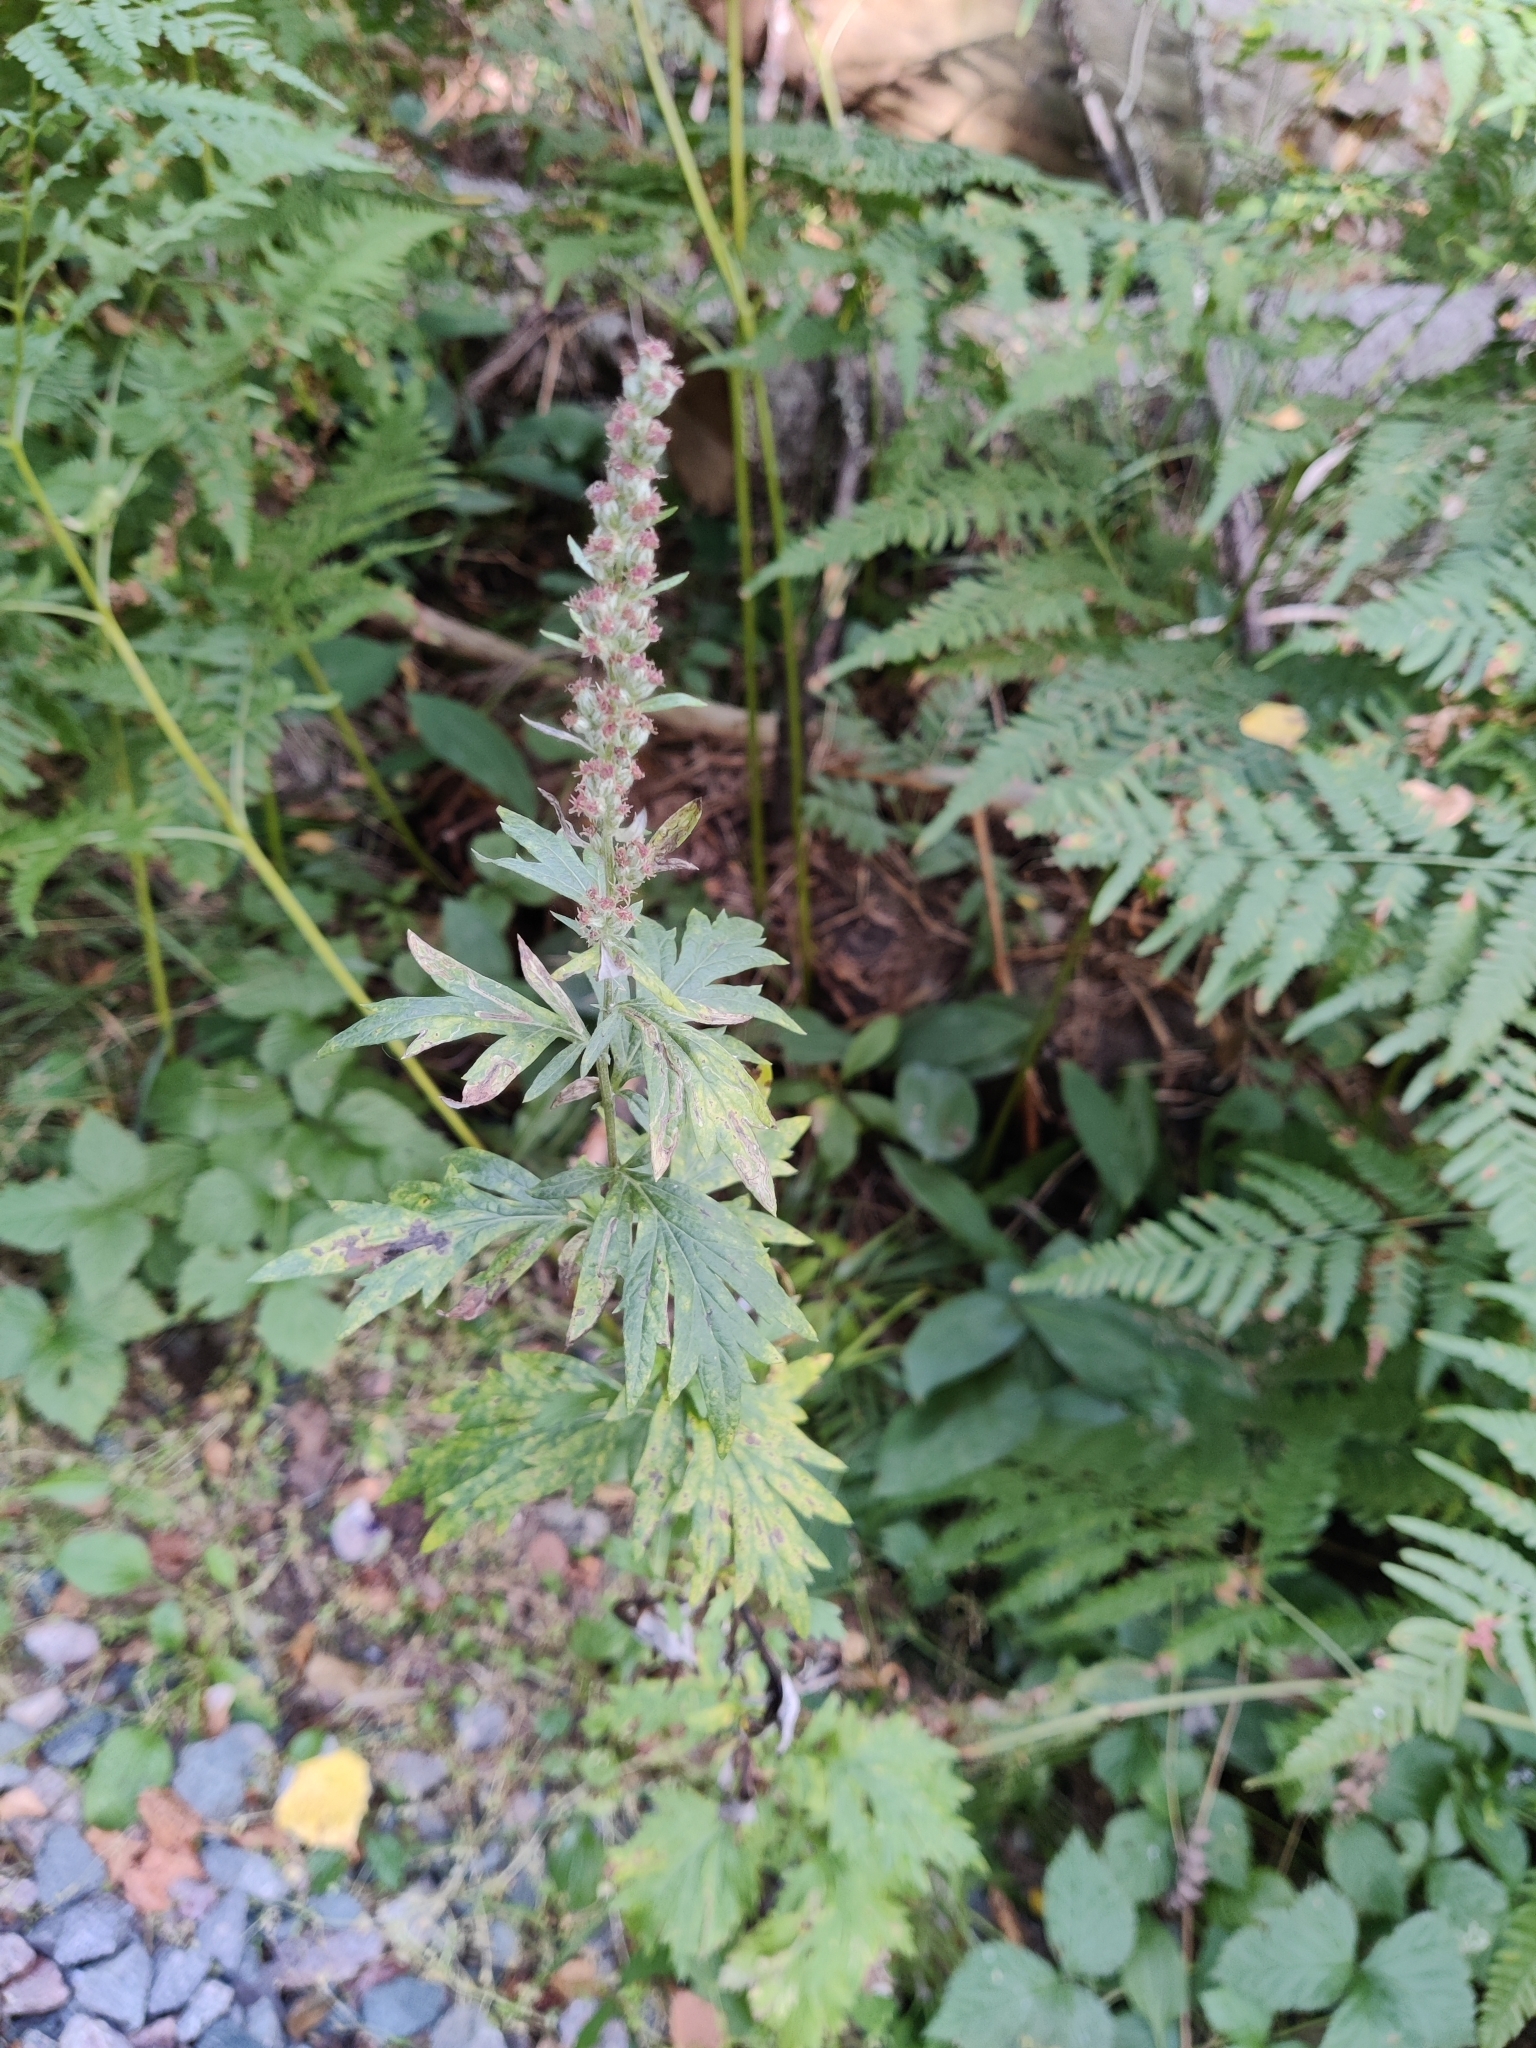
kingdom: Plantae
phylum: Tracheophyta
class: Magnoliopsida
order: Asterales
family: Asteraceae
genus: Artemisia
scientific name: Artemisia vulgaris
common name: Mugwort
